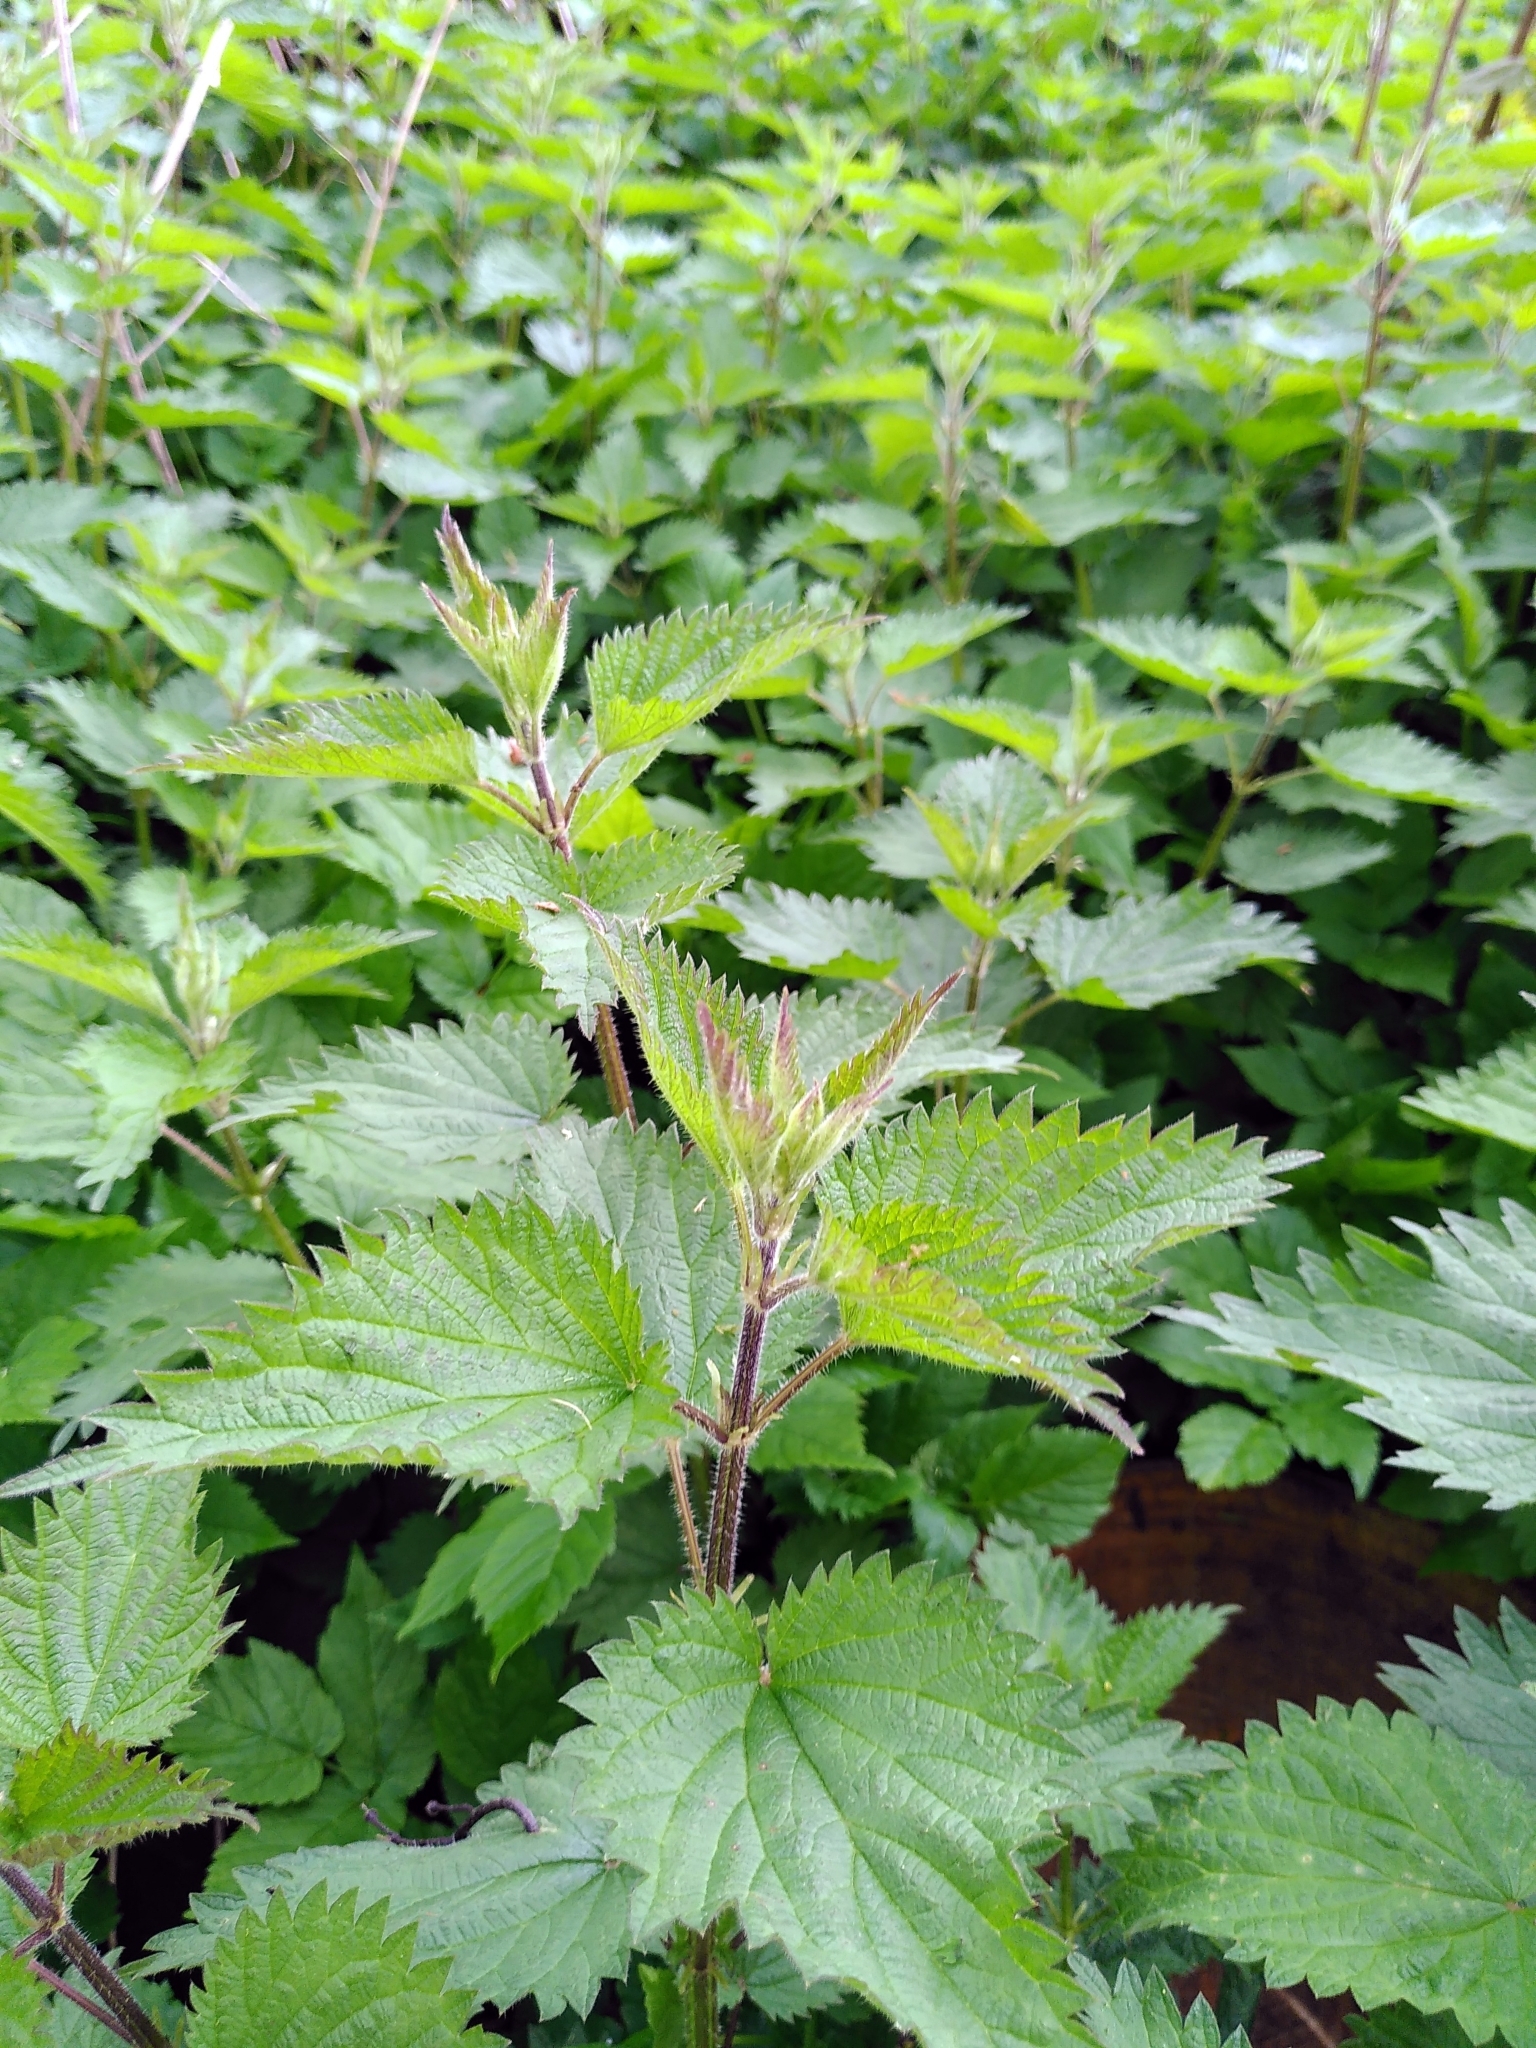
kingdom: Plantae
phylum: Tracheophyta
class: Magnoliopsida
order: Rosales
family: Urticaceae
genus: Urtica
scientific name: Urtica dioica
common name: Common nettle
